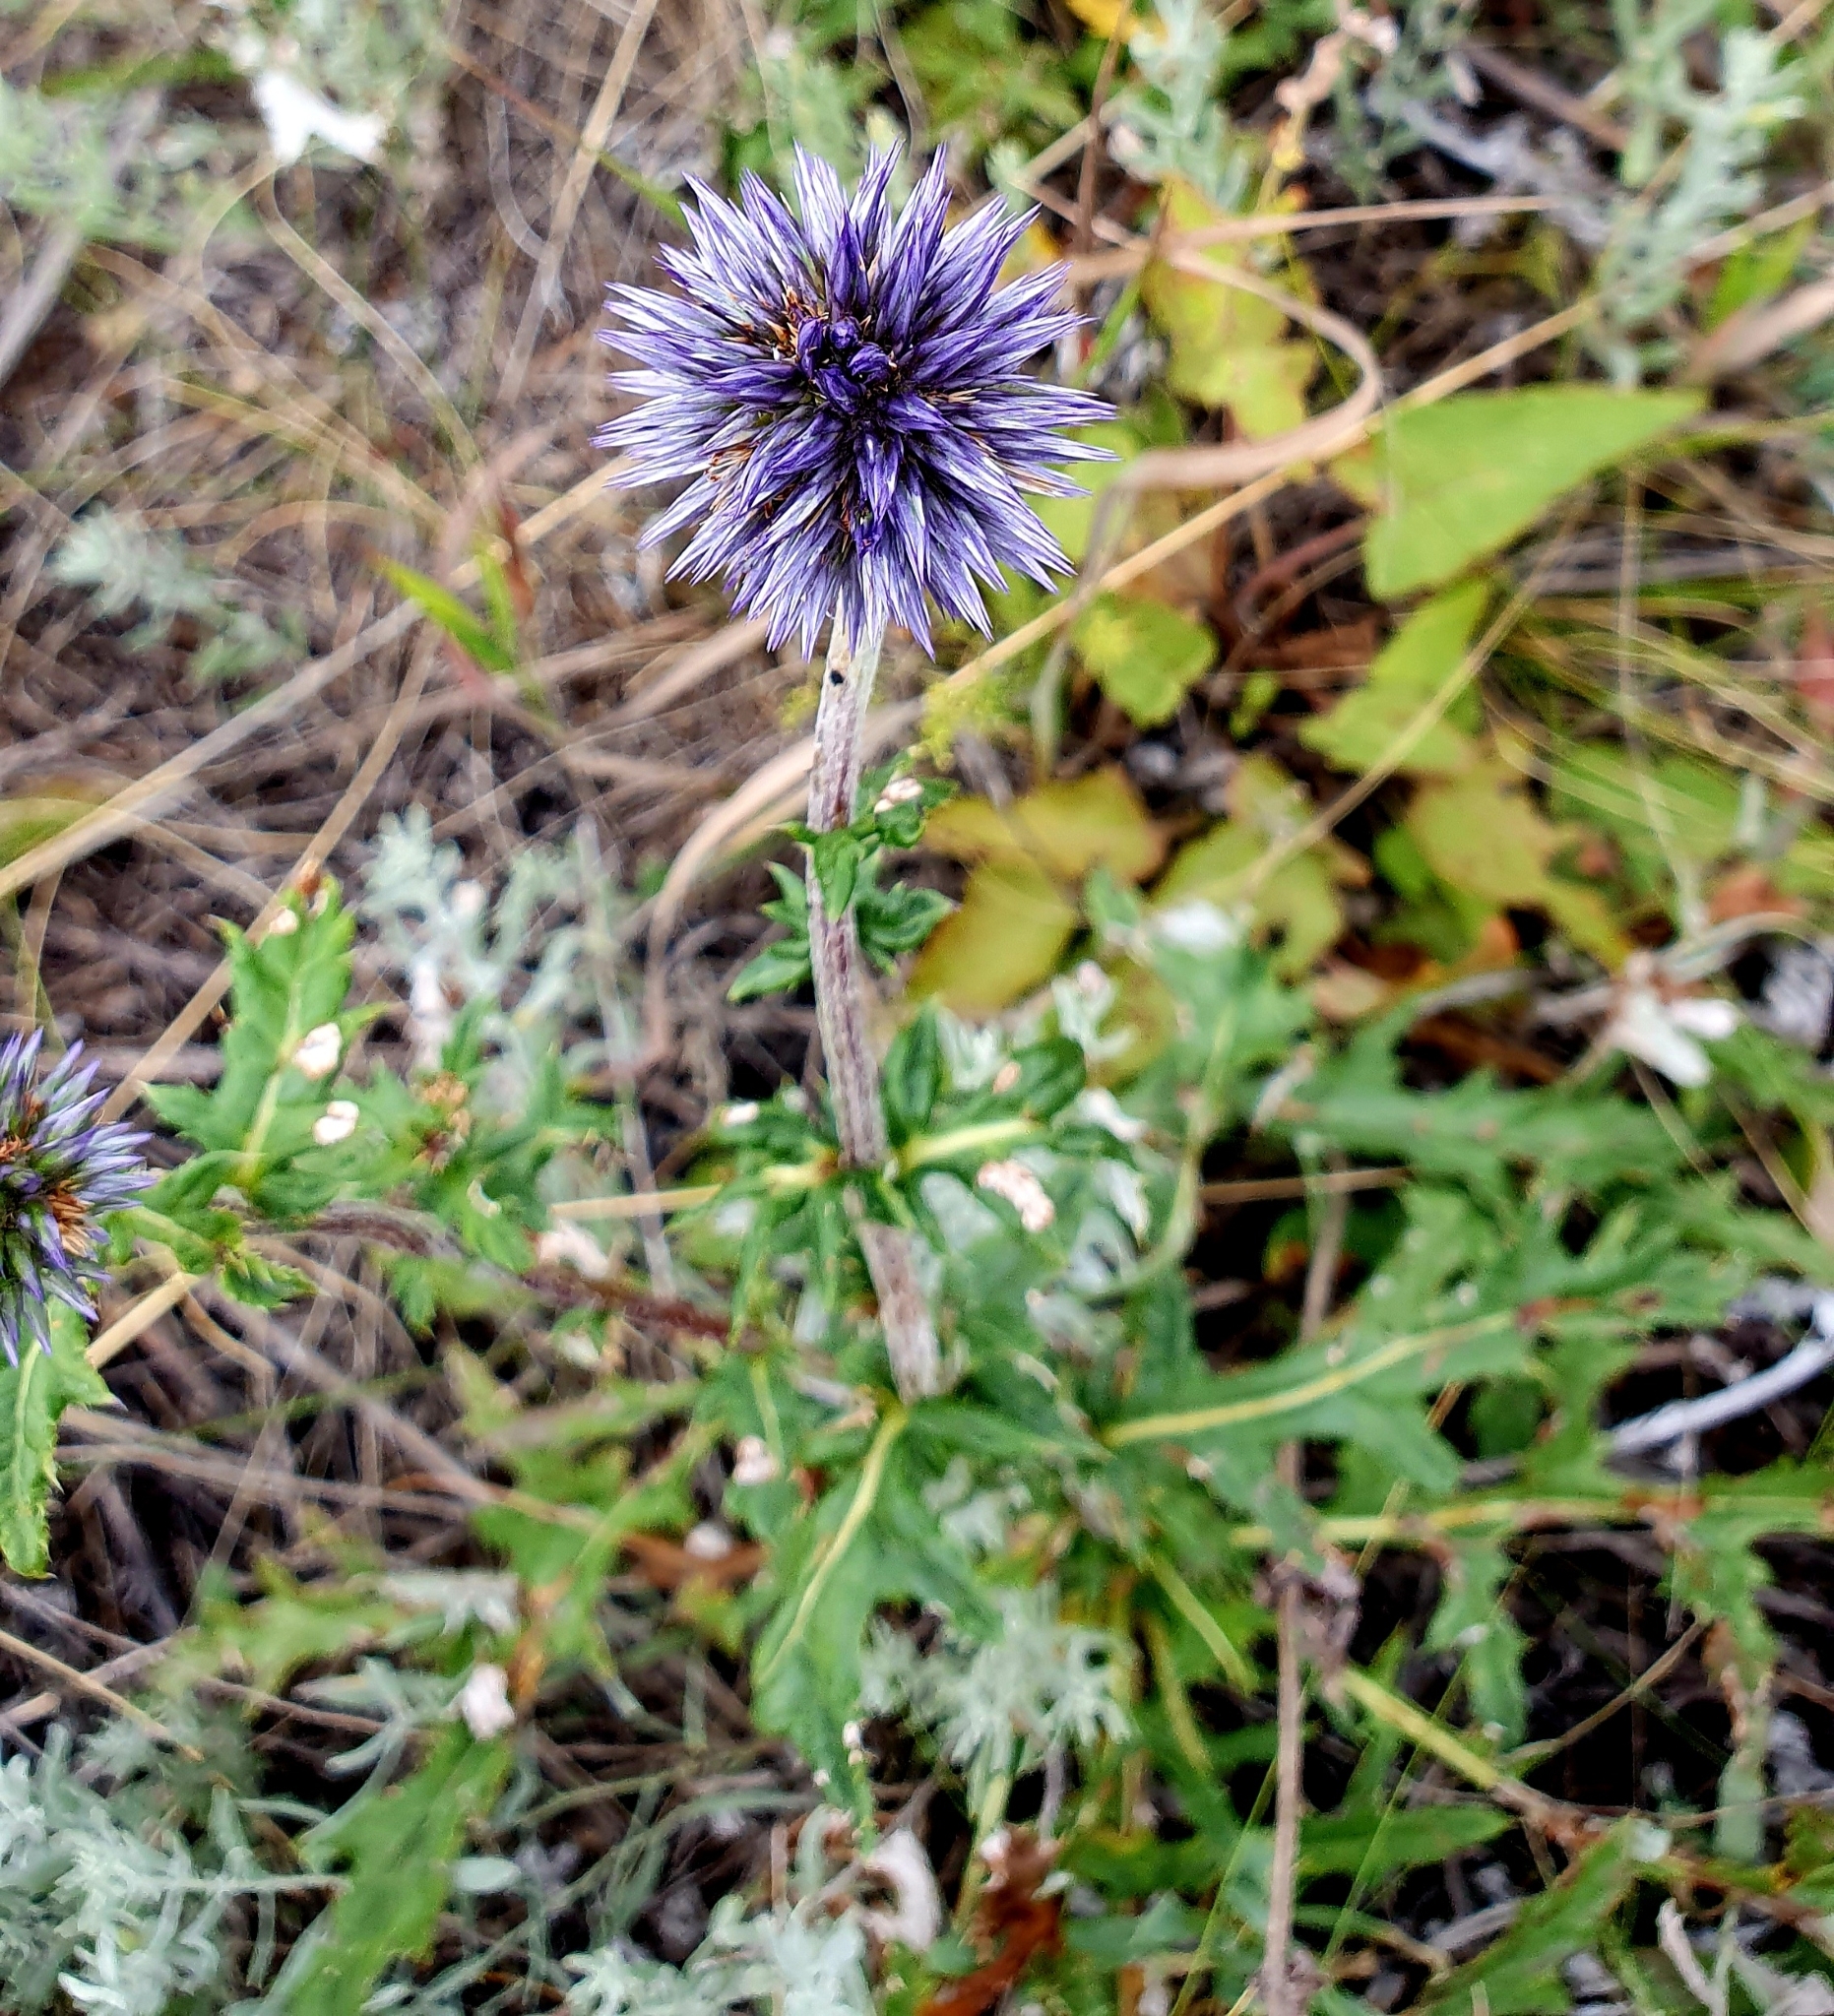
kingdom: Plantae
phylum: Tracheophyta
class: Magnoliopsida
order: Asterales
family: Asteraceae
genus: Echinops
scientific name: Echinops saksonovii
